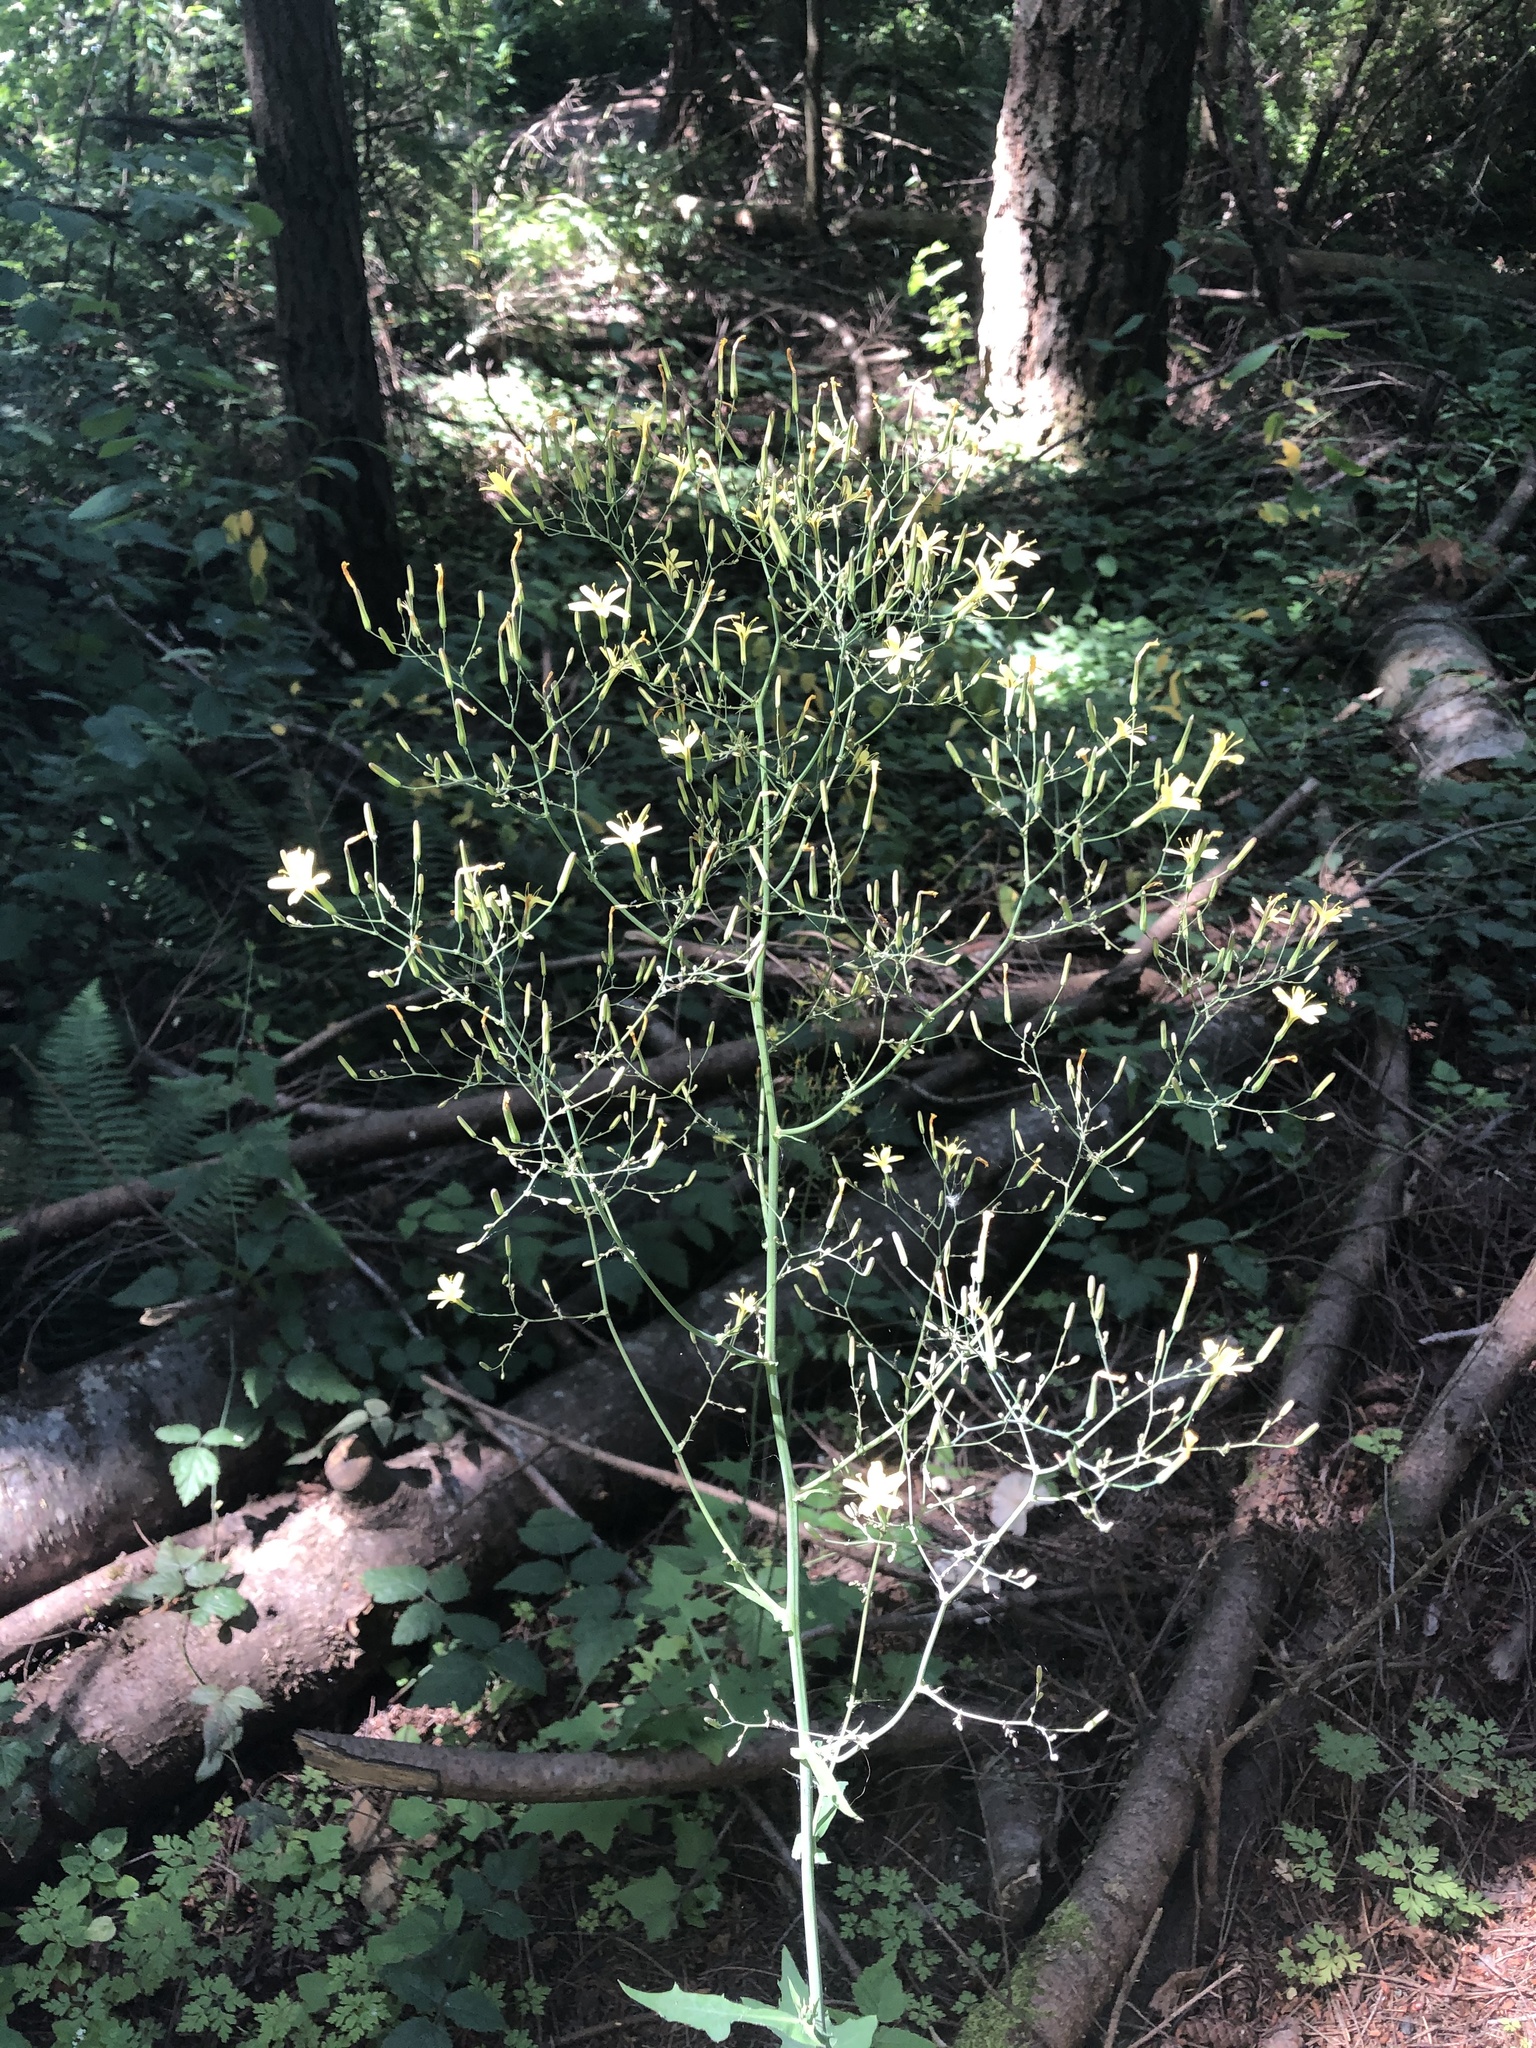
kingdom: Plantae
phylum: Tracheophyta
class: Magnoliopsida
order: Asterales
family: Asteraceae
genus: Mycelis
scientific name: Mycelis muralis
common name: Wall lettuce
